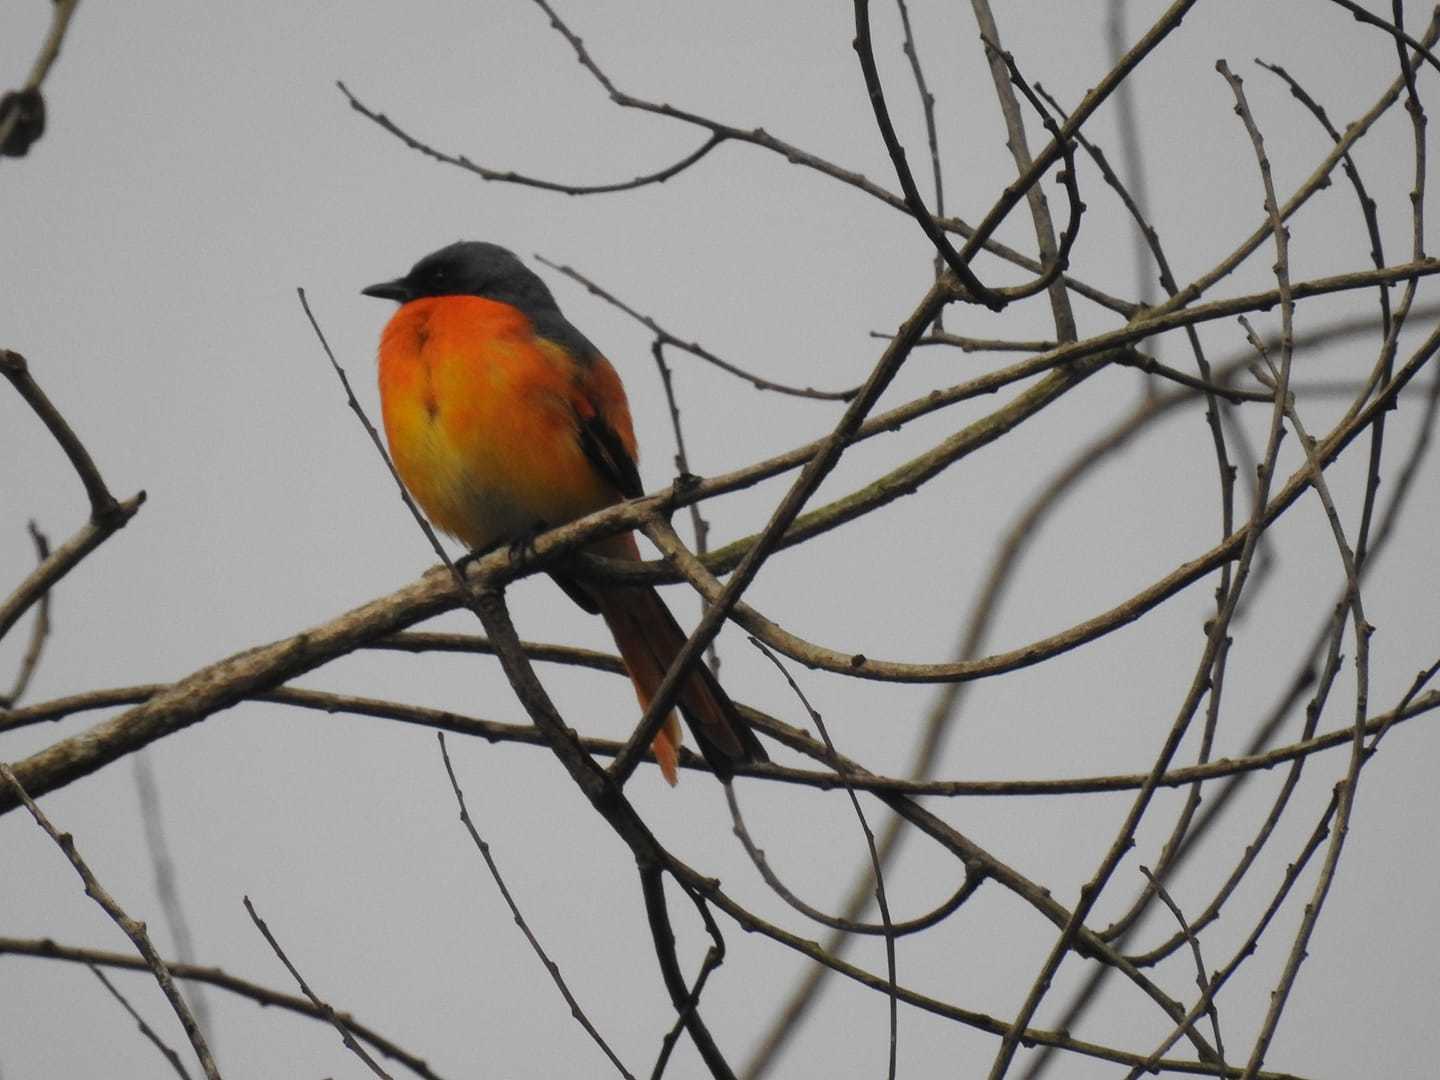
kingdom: Animalia
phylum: Chordata
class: Aves
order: Passeriformes
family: Campephagidae
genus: Pericrocotus
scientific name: Pericrocotus cinnamomeus
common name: Small minivet
